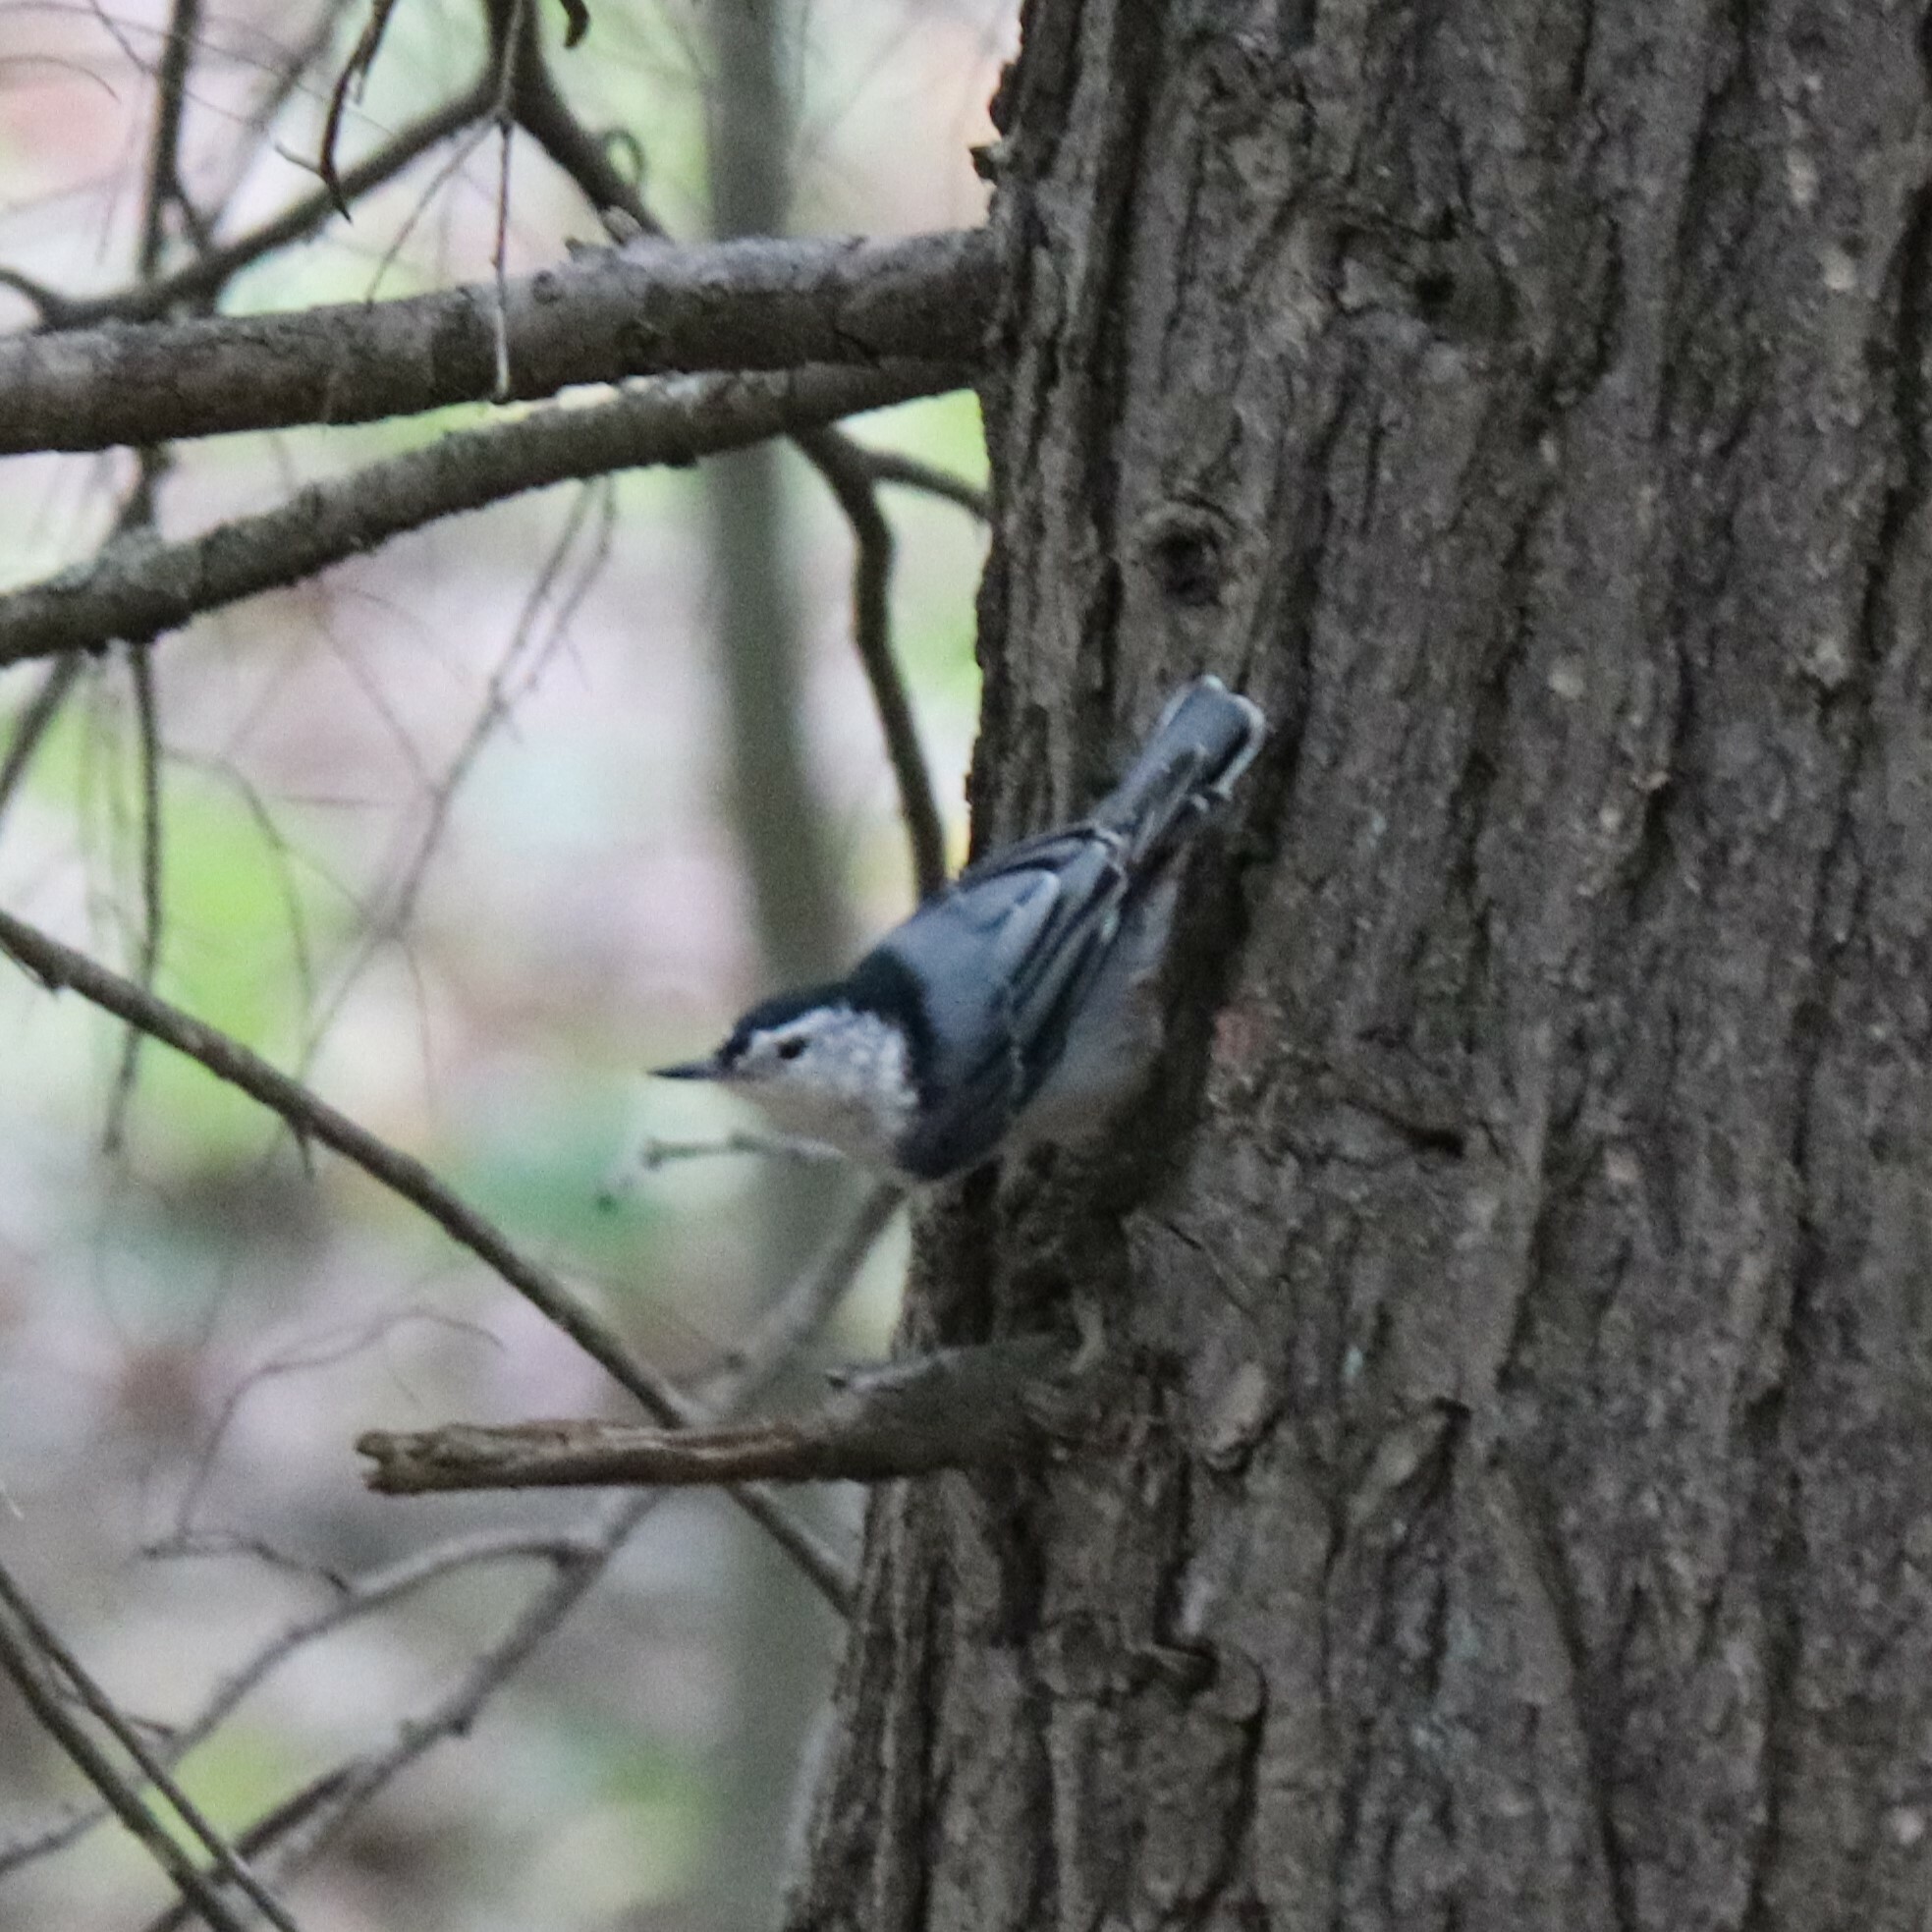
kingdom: Animalia
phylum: Chordata
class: Aves
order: Passeriformes
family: Sittidae
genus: Sitta
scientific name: Sitta carolinensis
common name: White-breasted nuthatch
